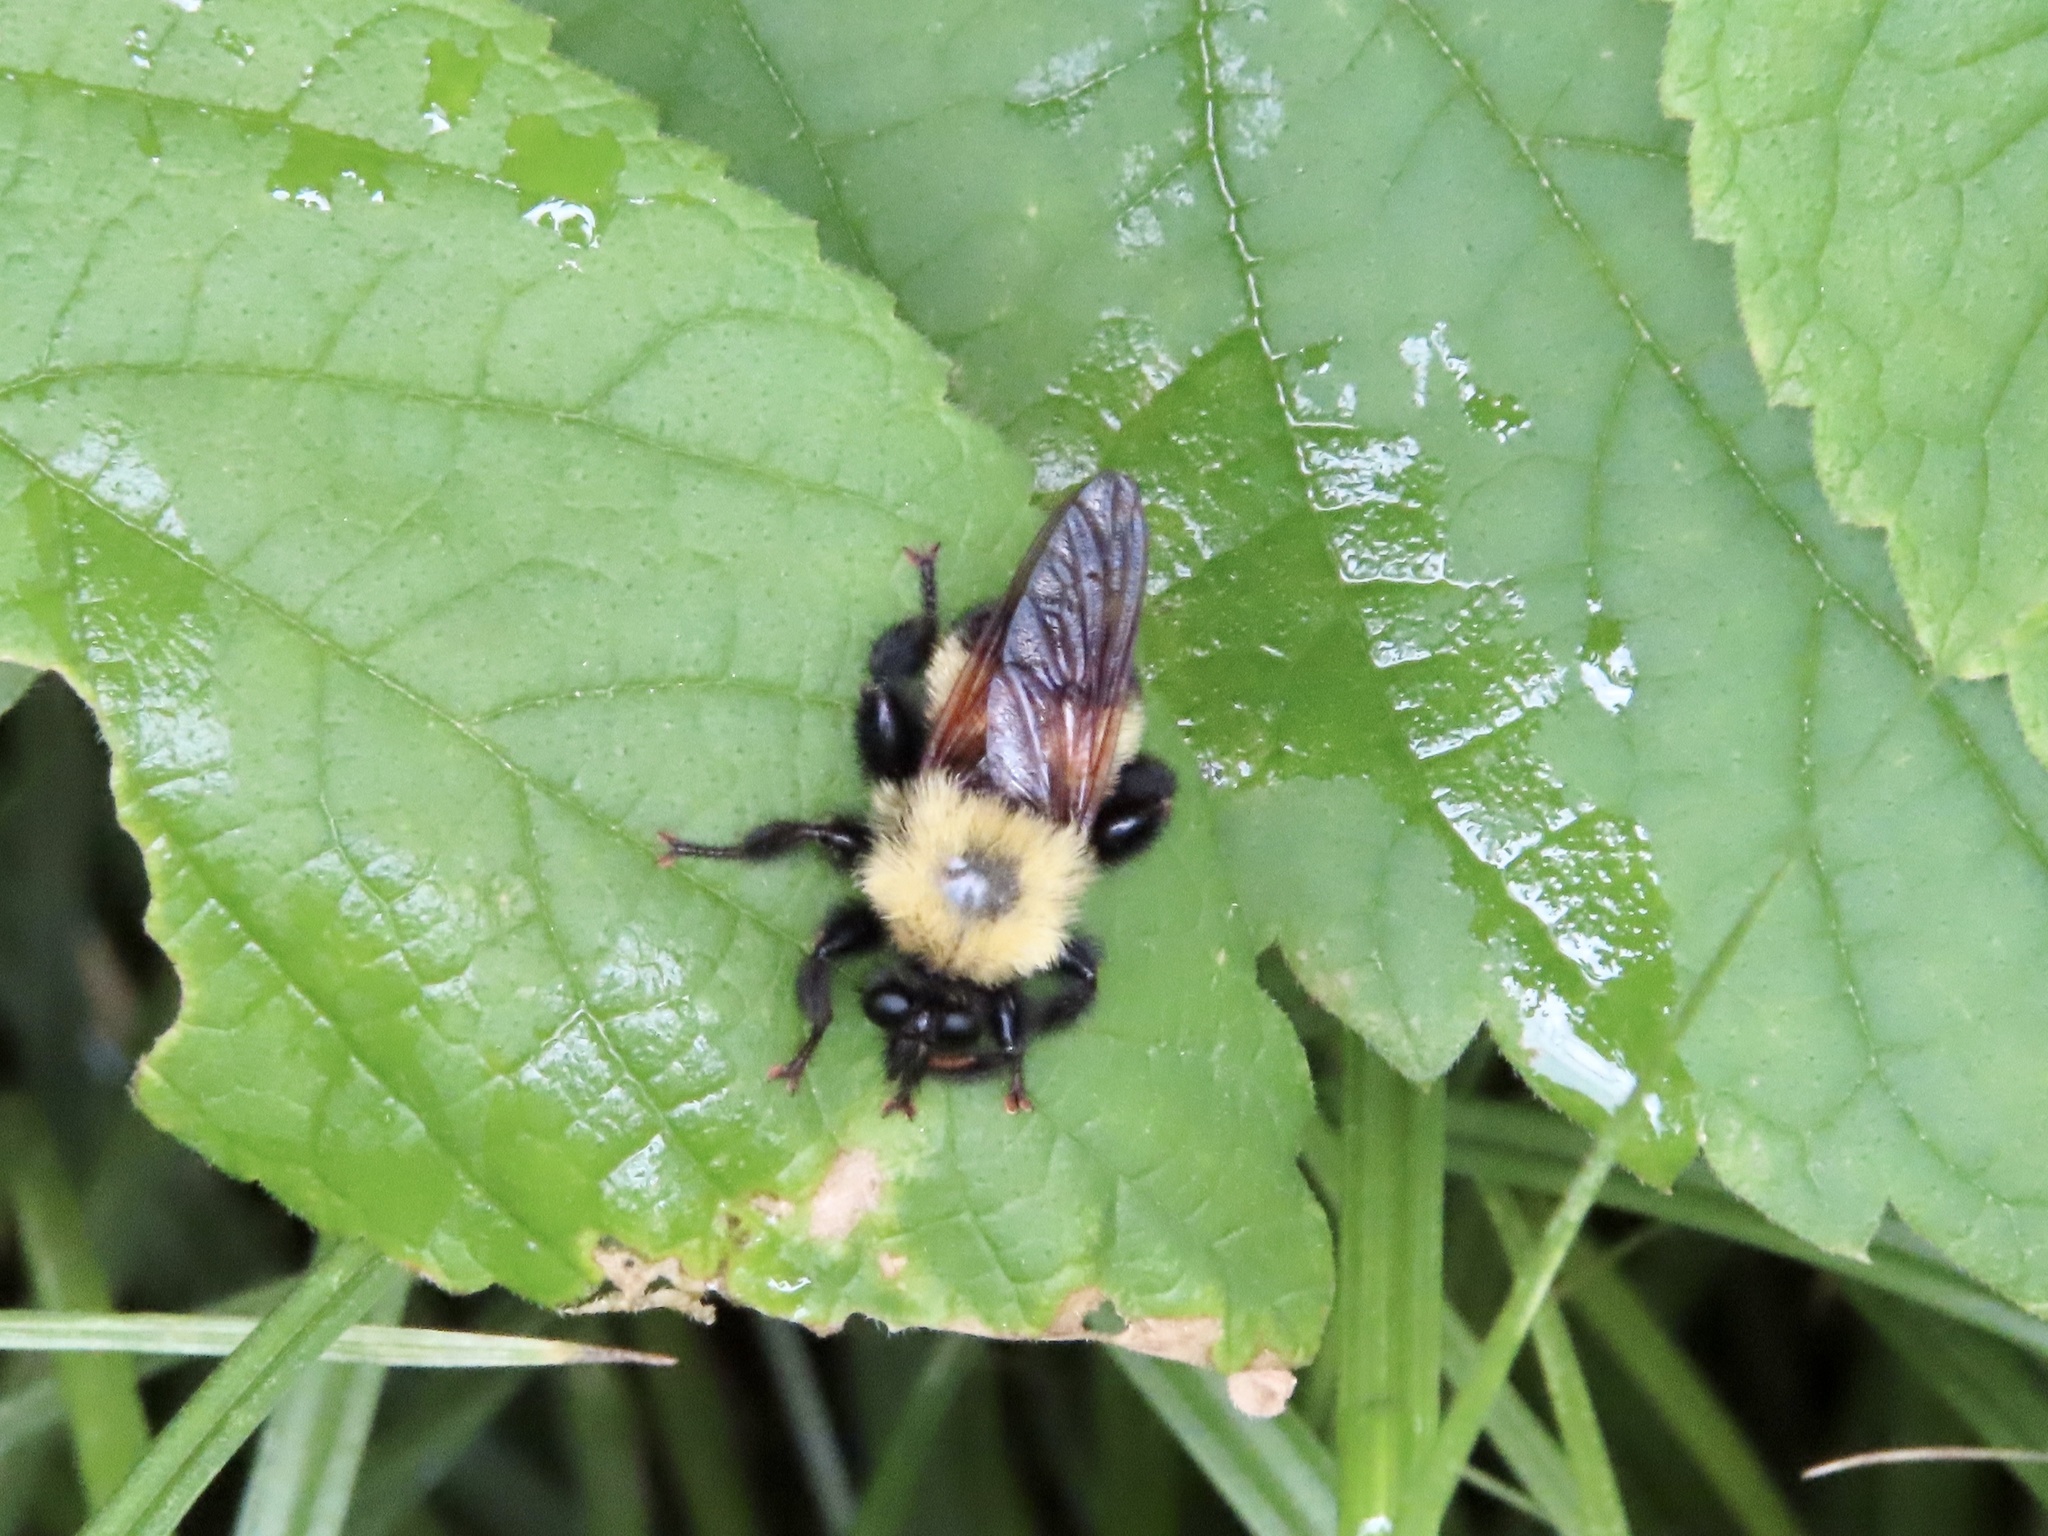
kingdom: Animalia
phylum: Arthropoda
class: Insecta
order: Diptera
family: Asilidae
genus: Laphria
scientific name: Laphria thoracica
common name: Bumble bee mimic robber fly
